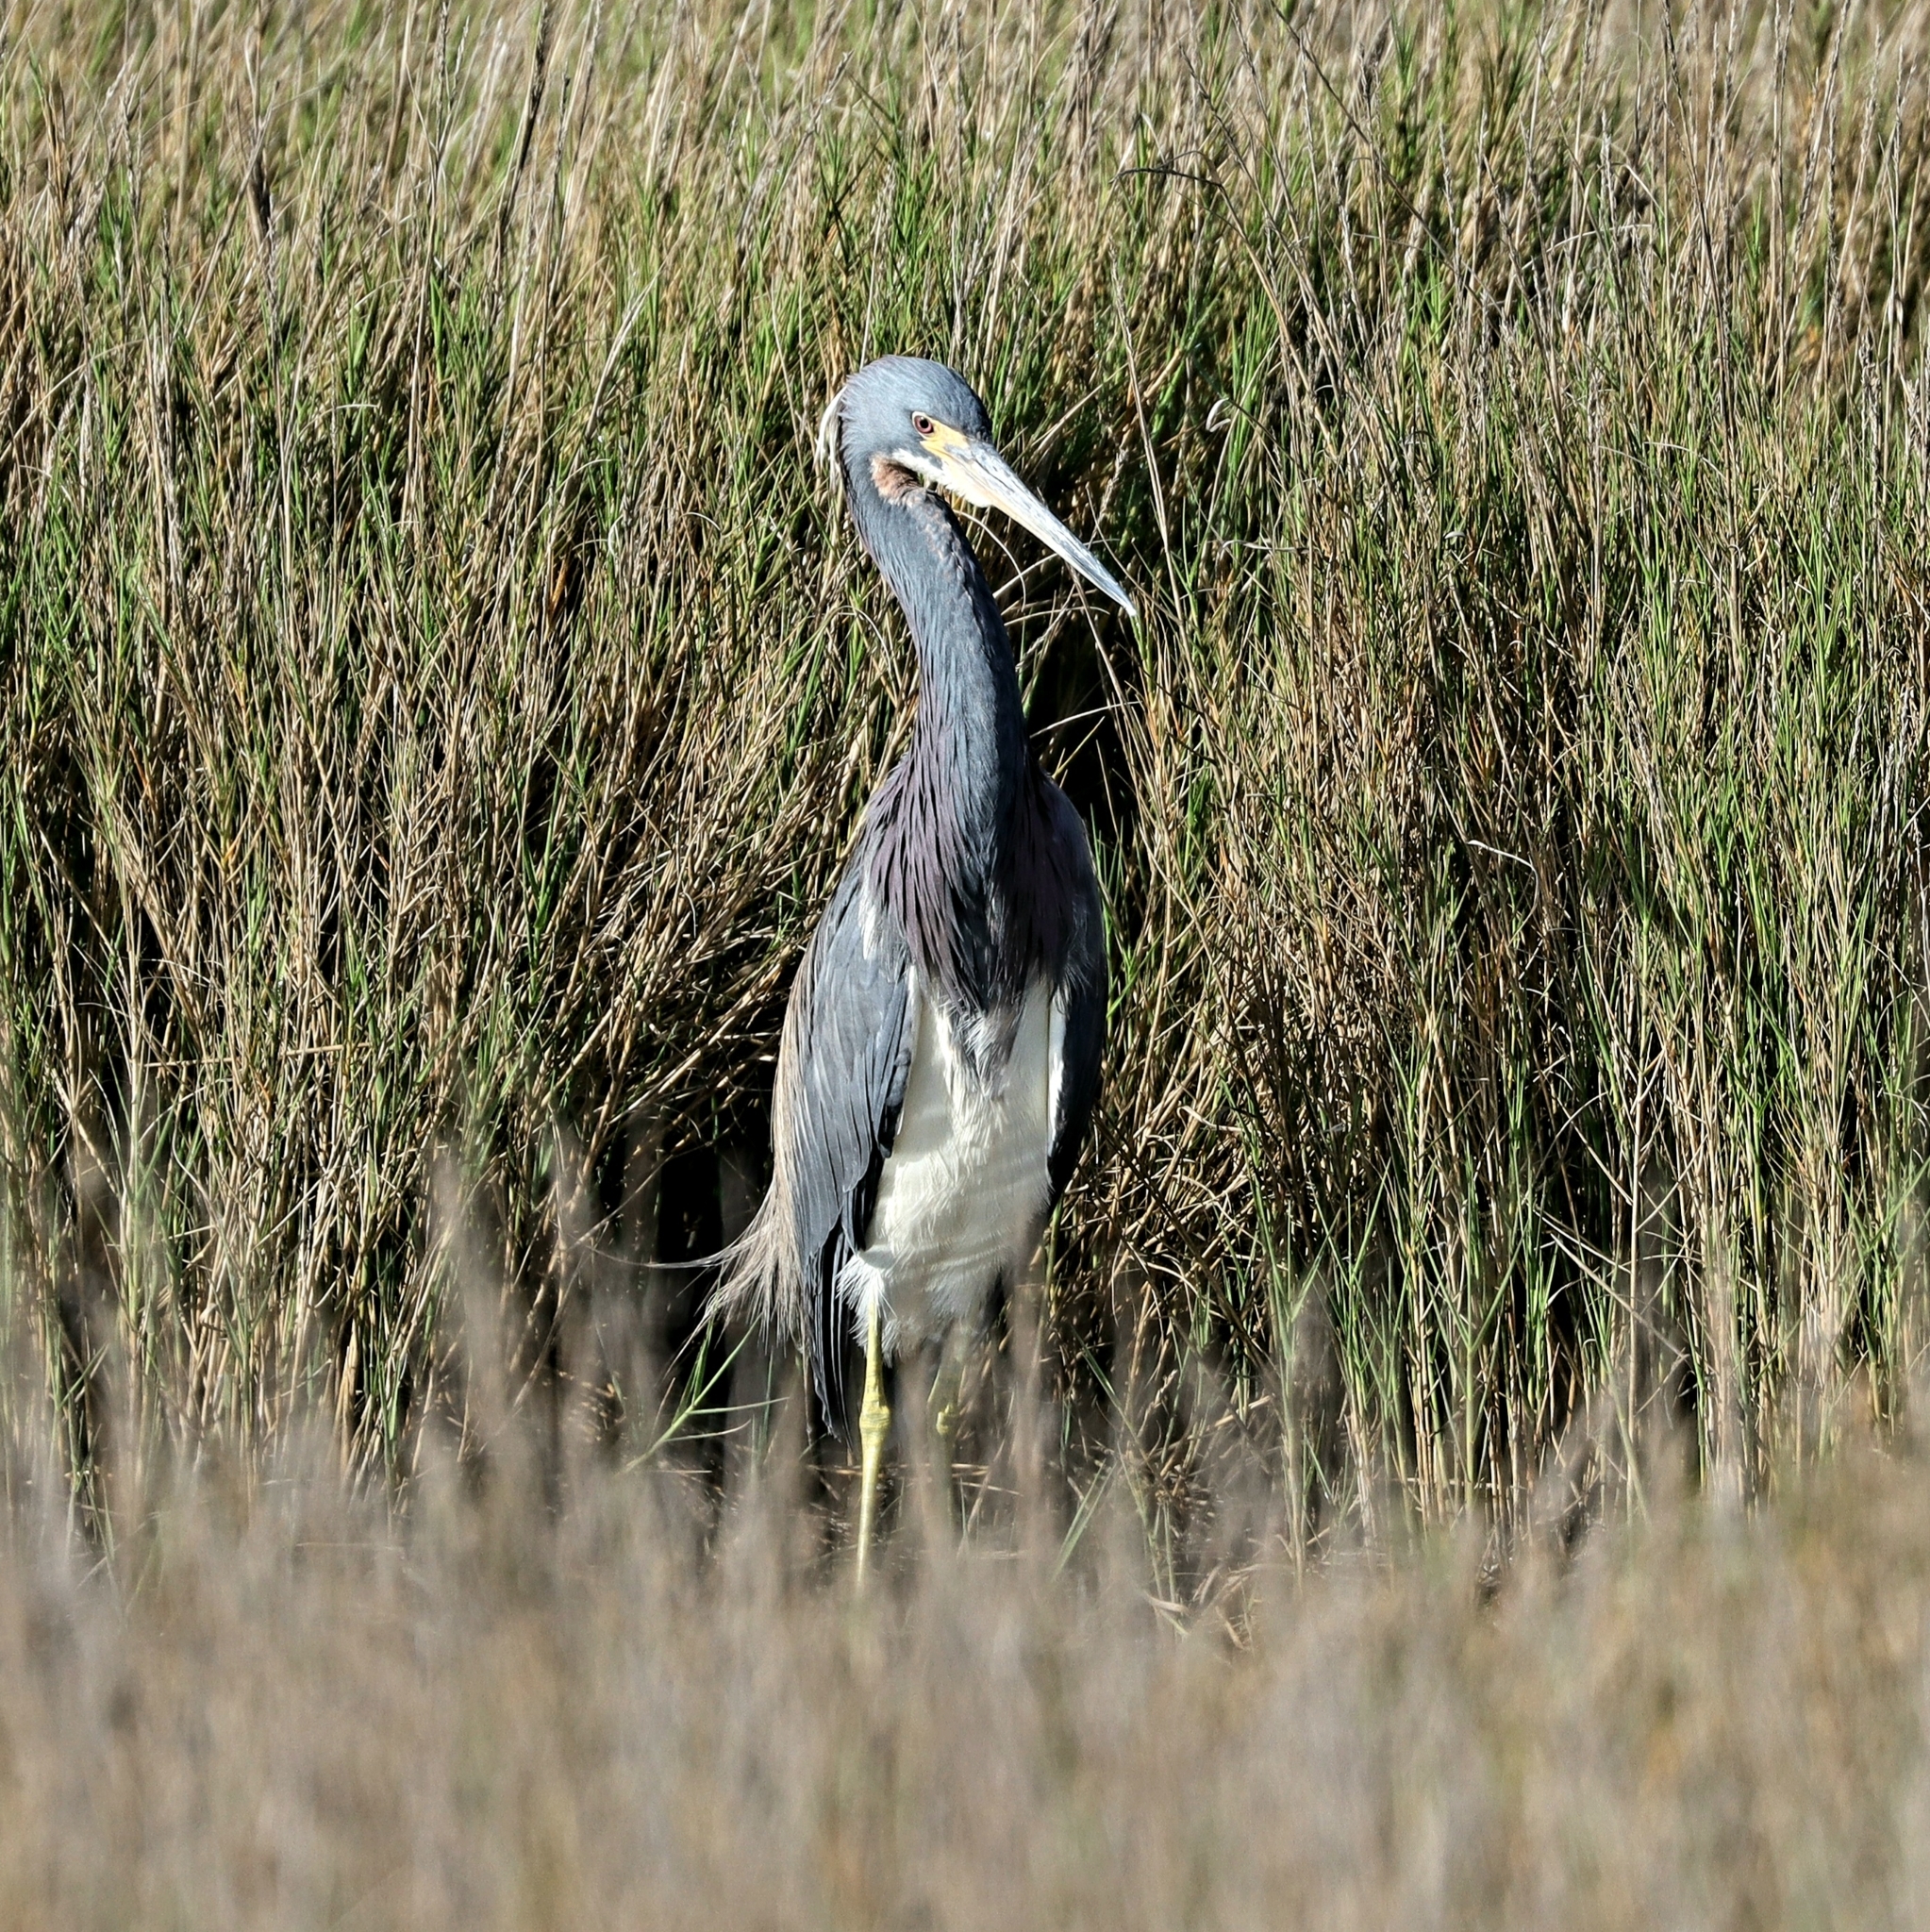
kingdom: Animalia
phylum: Chordata
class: Aves
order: Pelecaniformes
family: Ardeidae
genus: Egretta
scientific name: Egretta tricolor
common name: Tricolored heron
